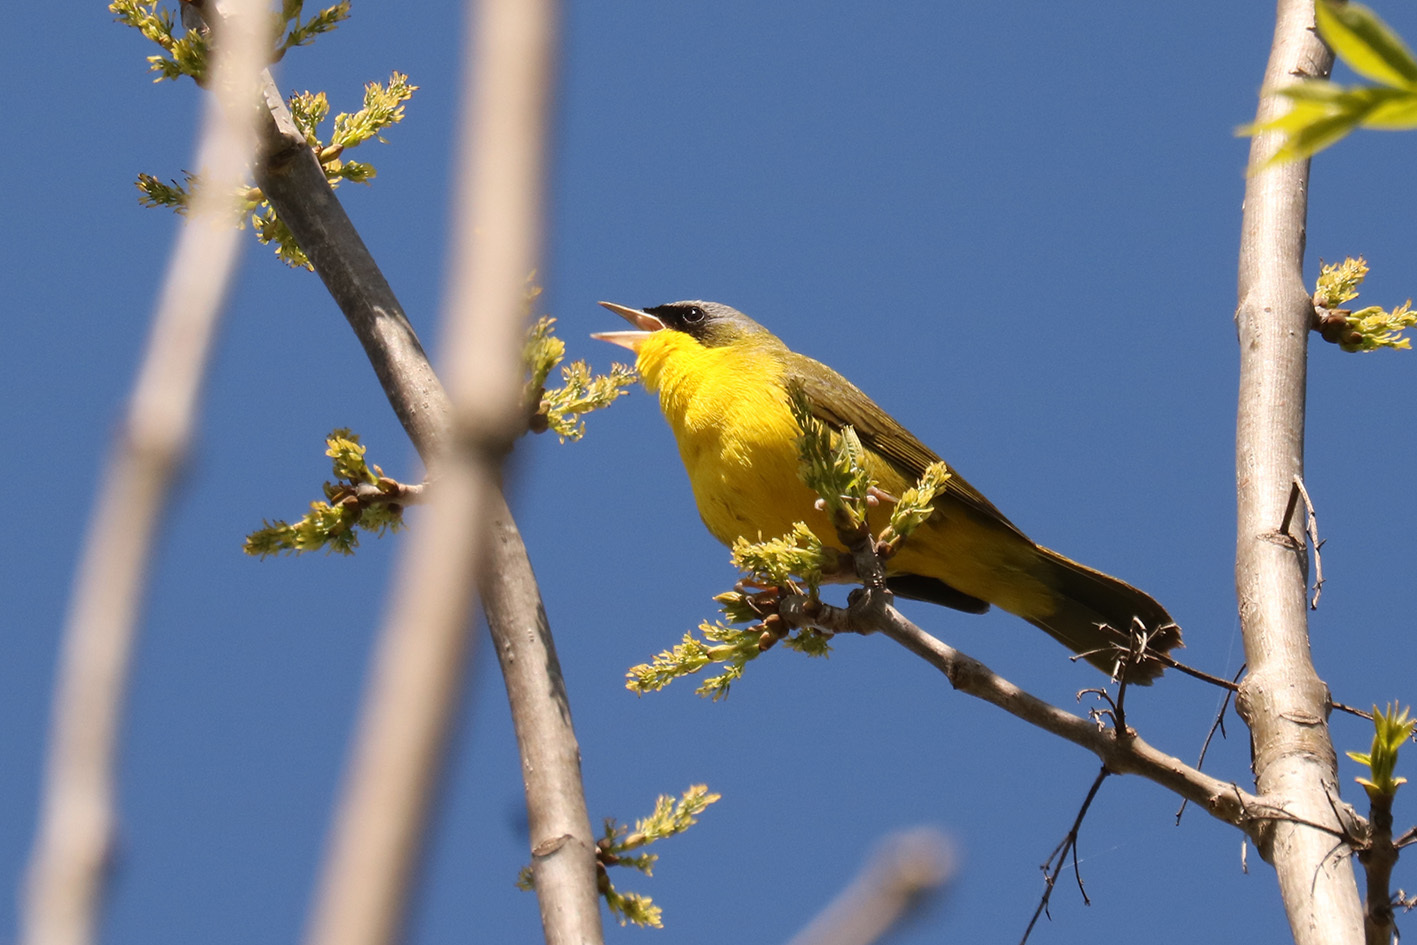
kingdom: Animalia
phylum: Chordata
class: Aves
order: Passeriformes
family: Parulidae
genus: Geothlypis
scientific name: Geothlypis velata
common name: Southern yellowthroat
